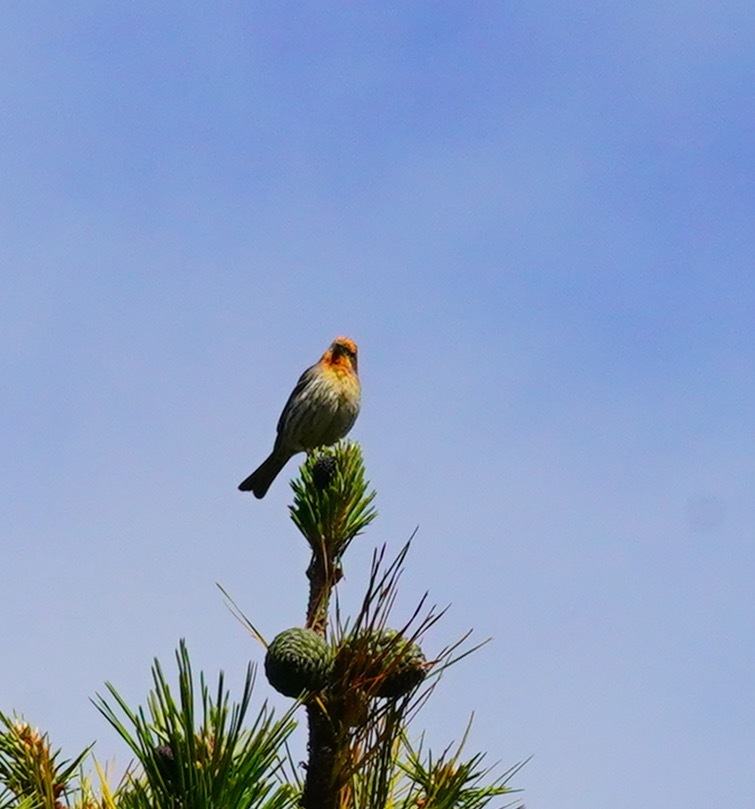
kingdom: Animalia
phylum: Chordata
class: Aves
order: Passeriformes
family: Fringillidae
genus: Haemorhous
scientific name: Haemorhous mexicanus
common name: House finch
